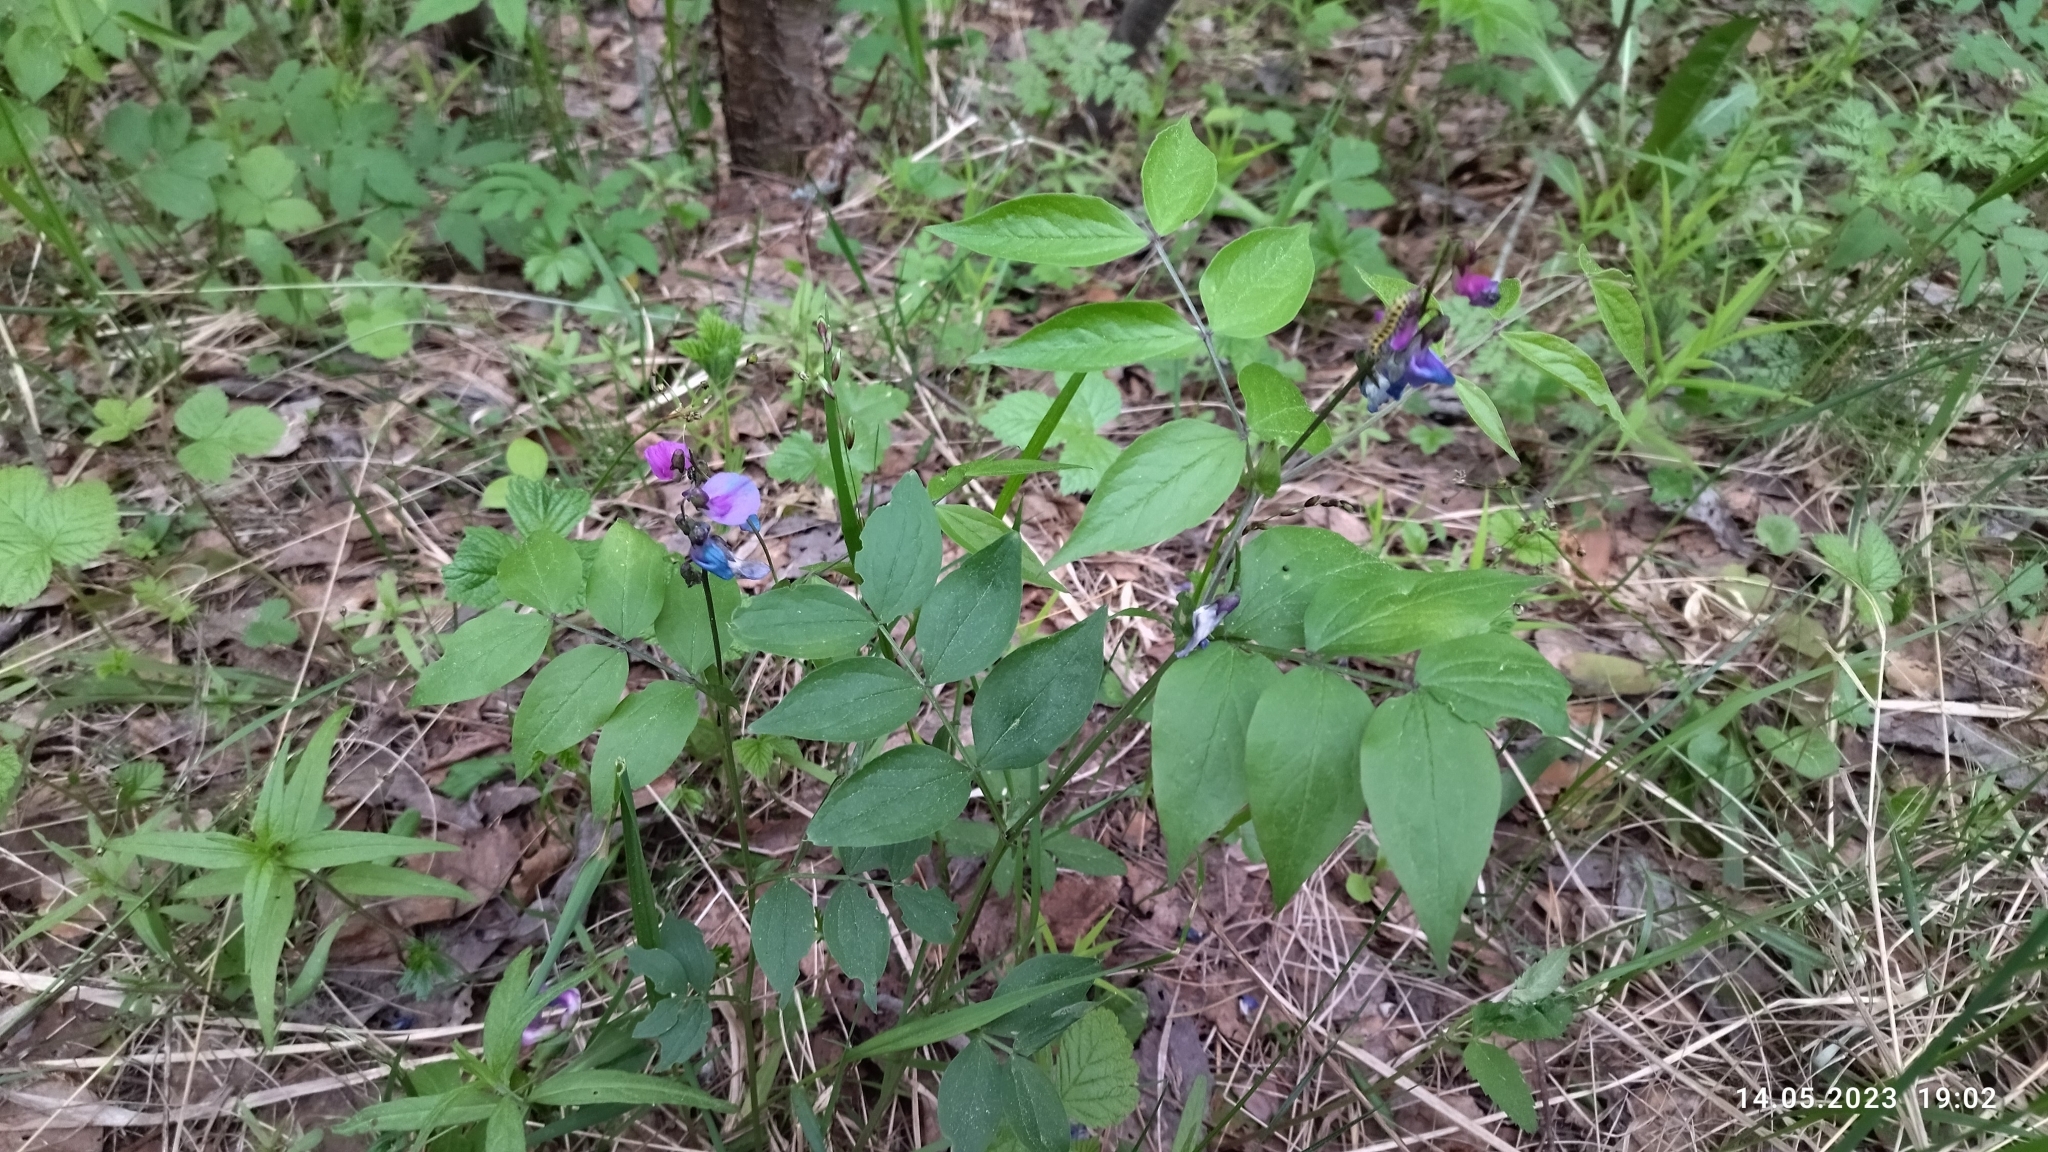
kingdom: Plantae
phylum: Tracheophyta
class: Magnoliopsida
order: Fabales
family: Fabaceae
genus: Lathyrus
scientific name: Lathyrus vernus
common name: Spring pea
